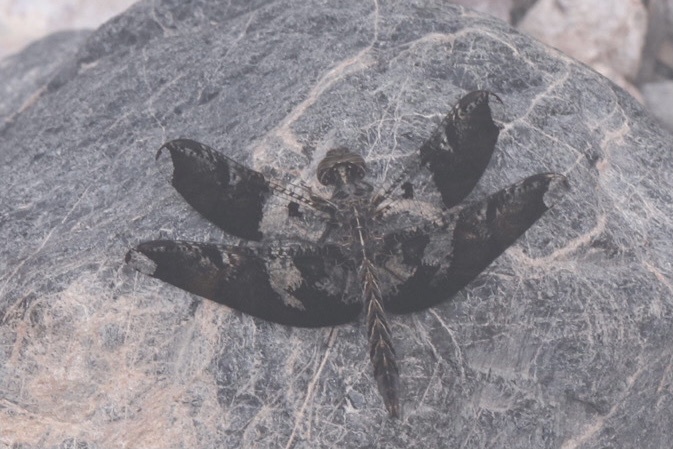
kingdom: Animalia
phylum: Arthropoda
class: Insecta
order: Odonata
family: Libellulidae
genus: Pseudoleon
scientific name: Pseudoleon superbus
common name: Filigree skimmer
